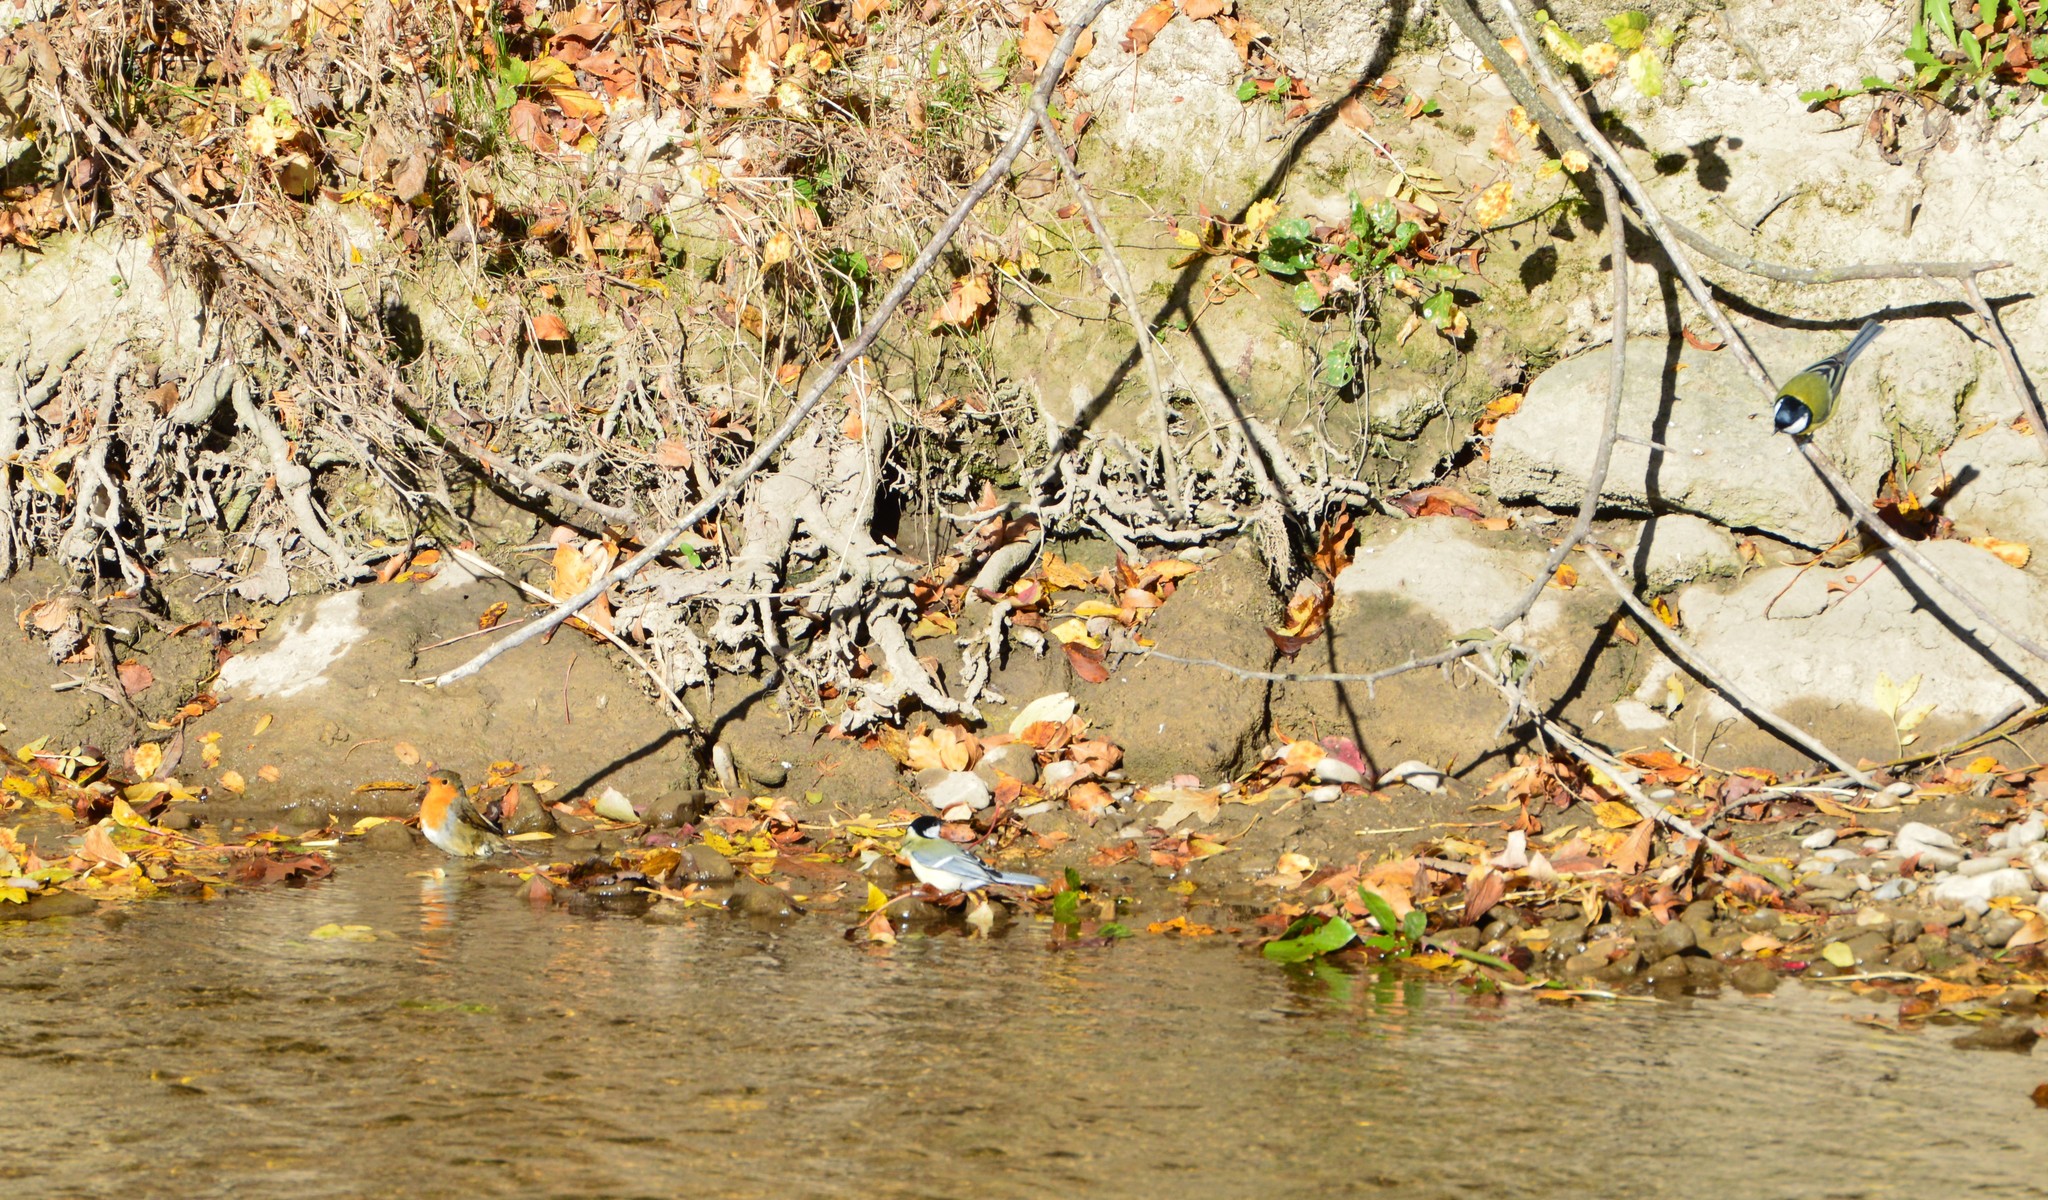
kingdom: Animalia
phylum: Chordata
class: Aves
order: Passeriformes
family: Paridae
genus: Parus
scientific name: Parus major
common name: Great tit
